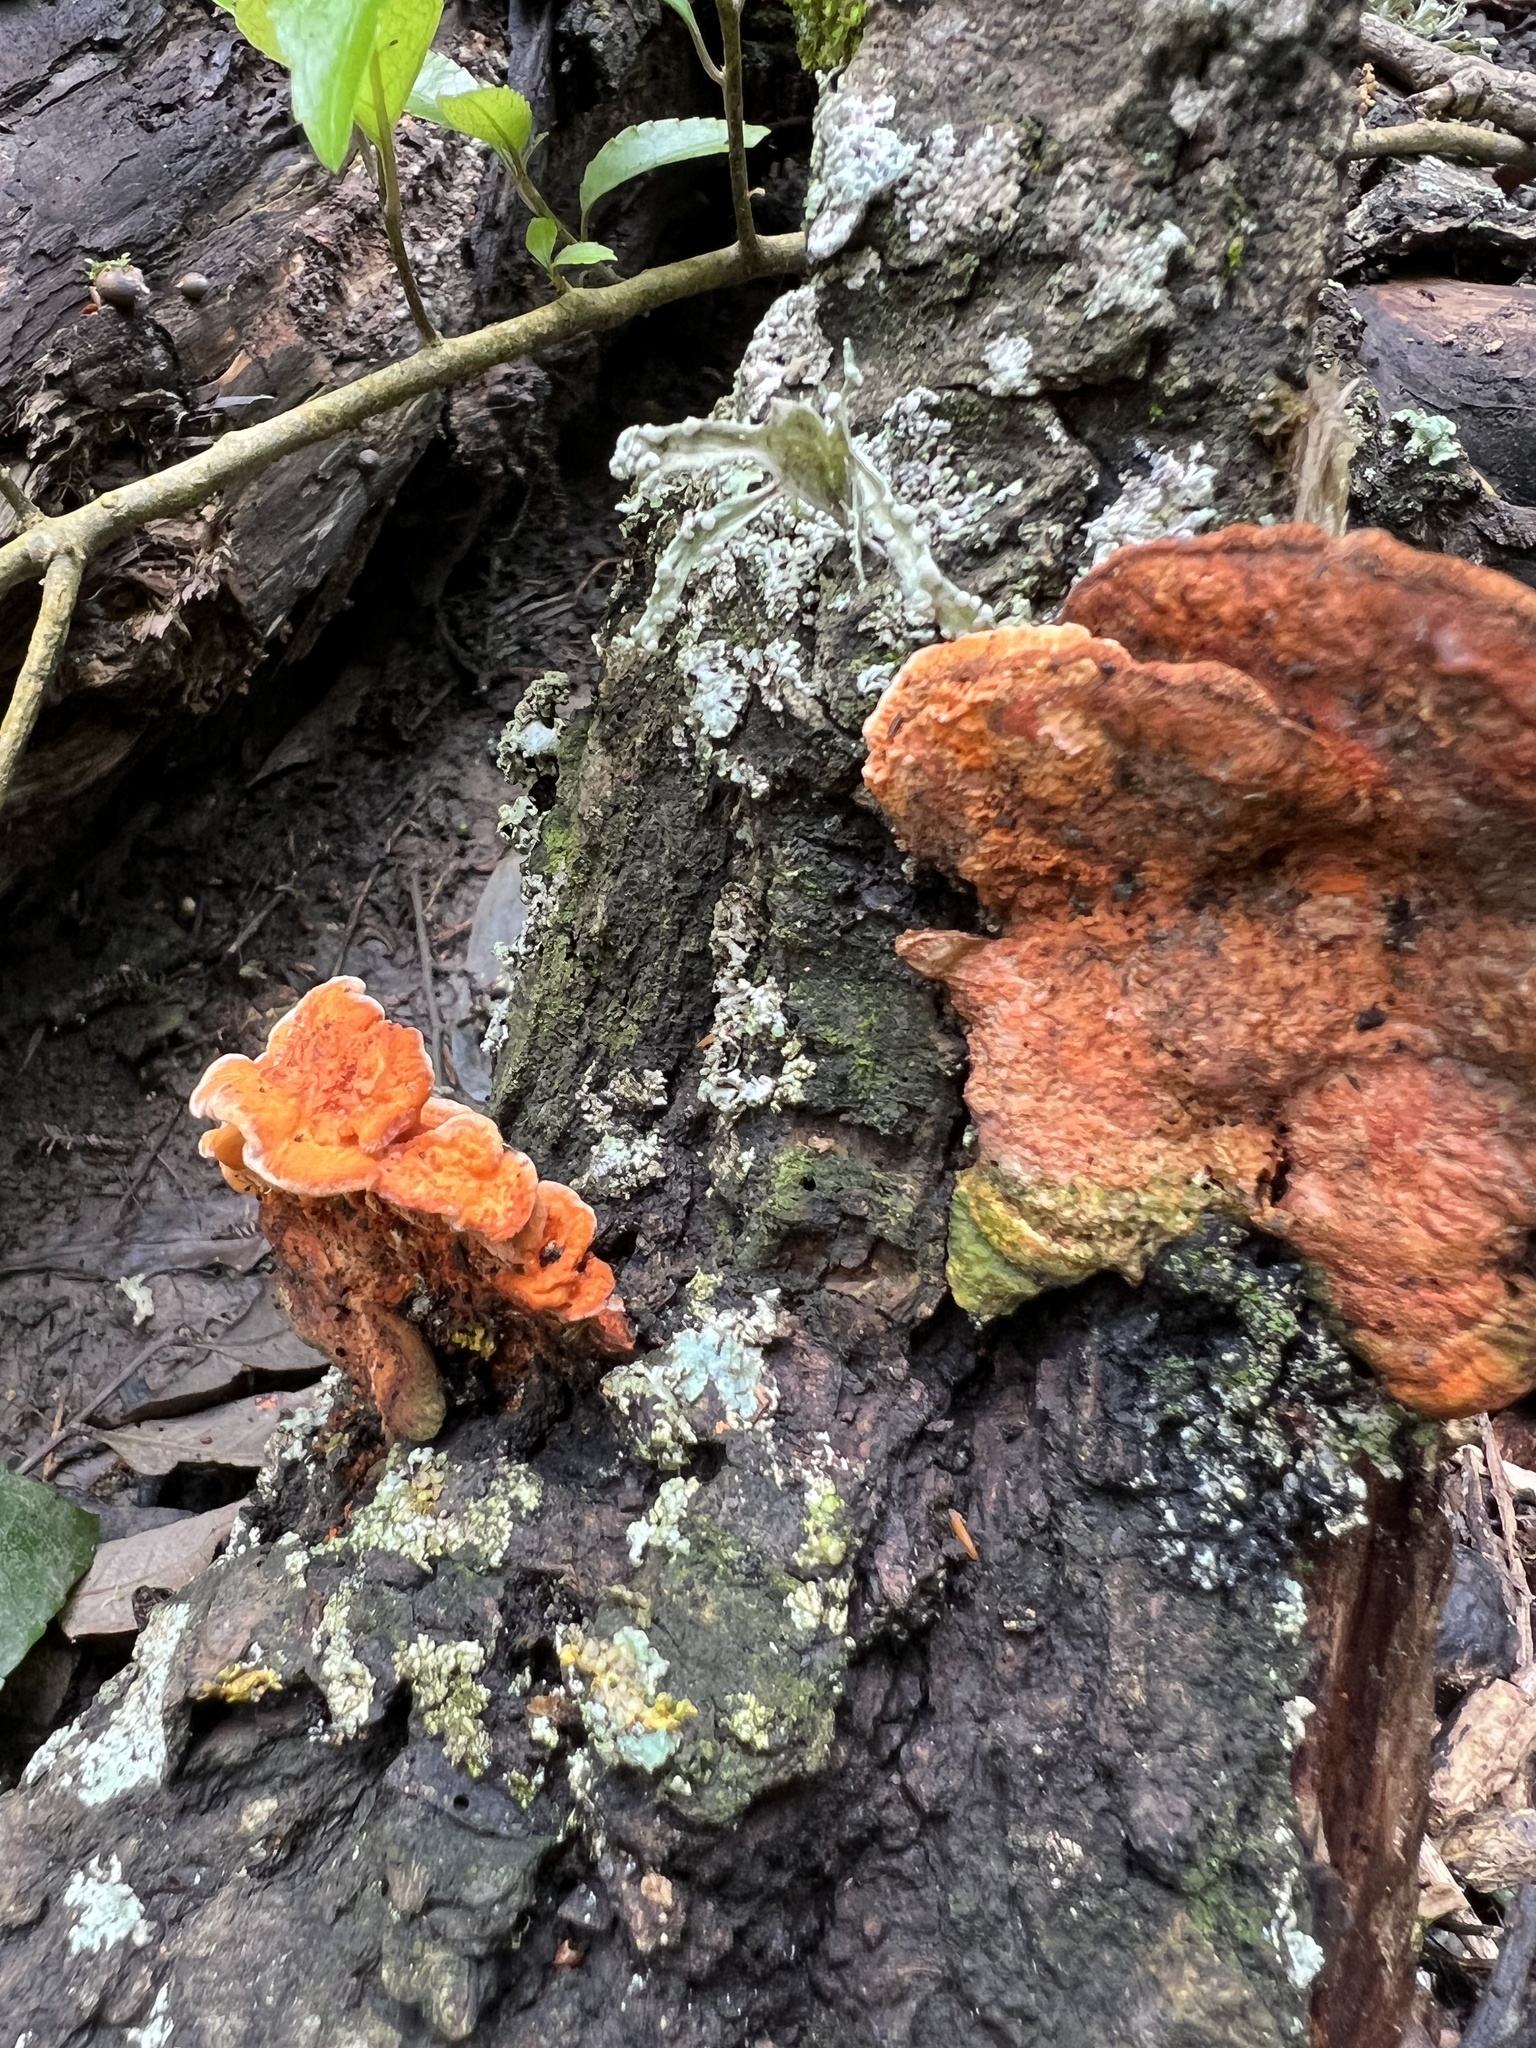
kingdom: Fungi
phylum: Basidiomycota
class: Agaricomycetes
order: Polyporales
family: Polyporaceae
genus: Trametes
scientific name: Trametes coccinea
